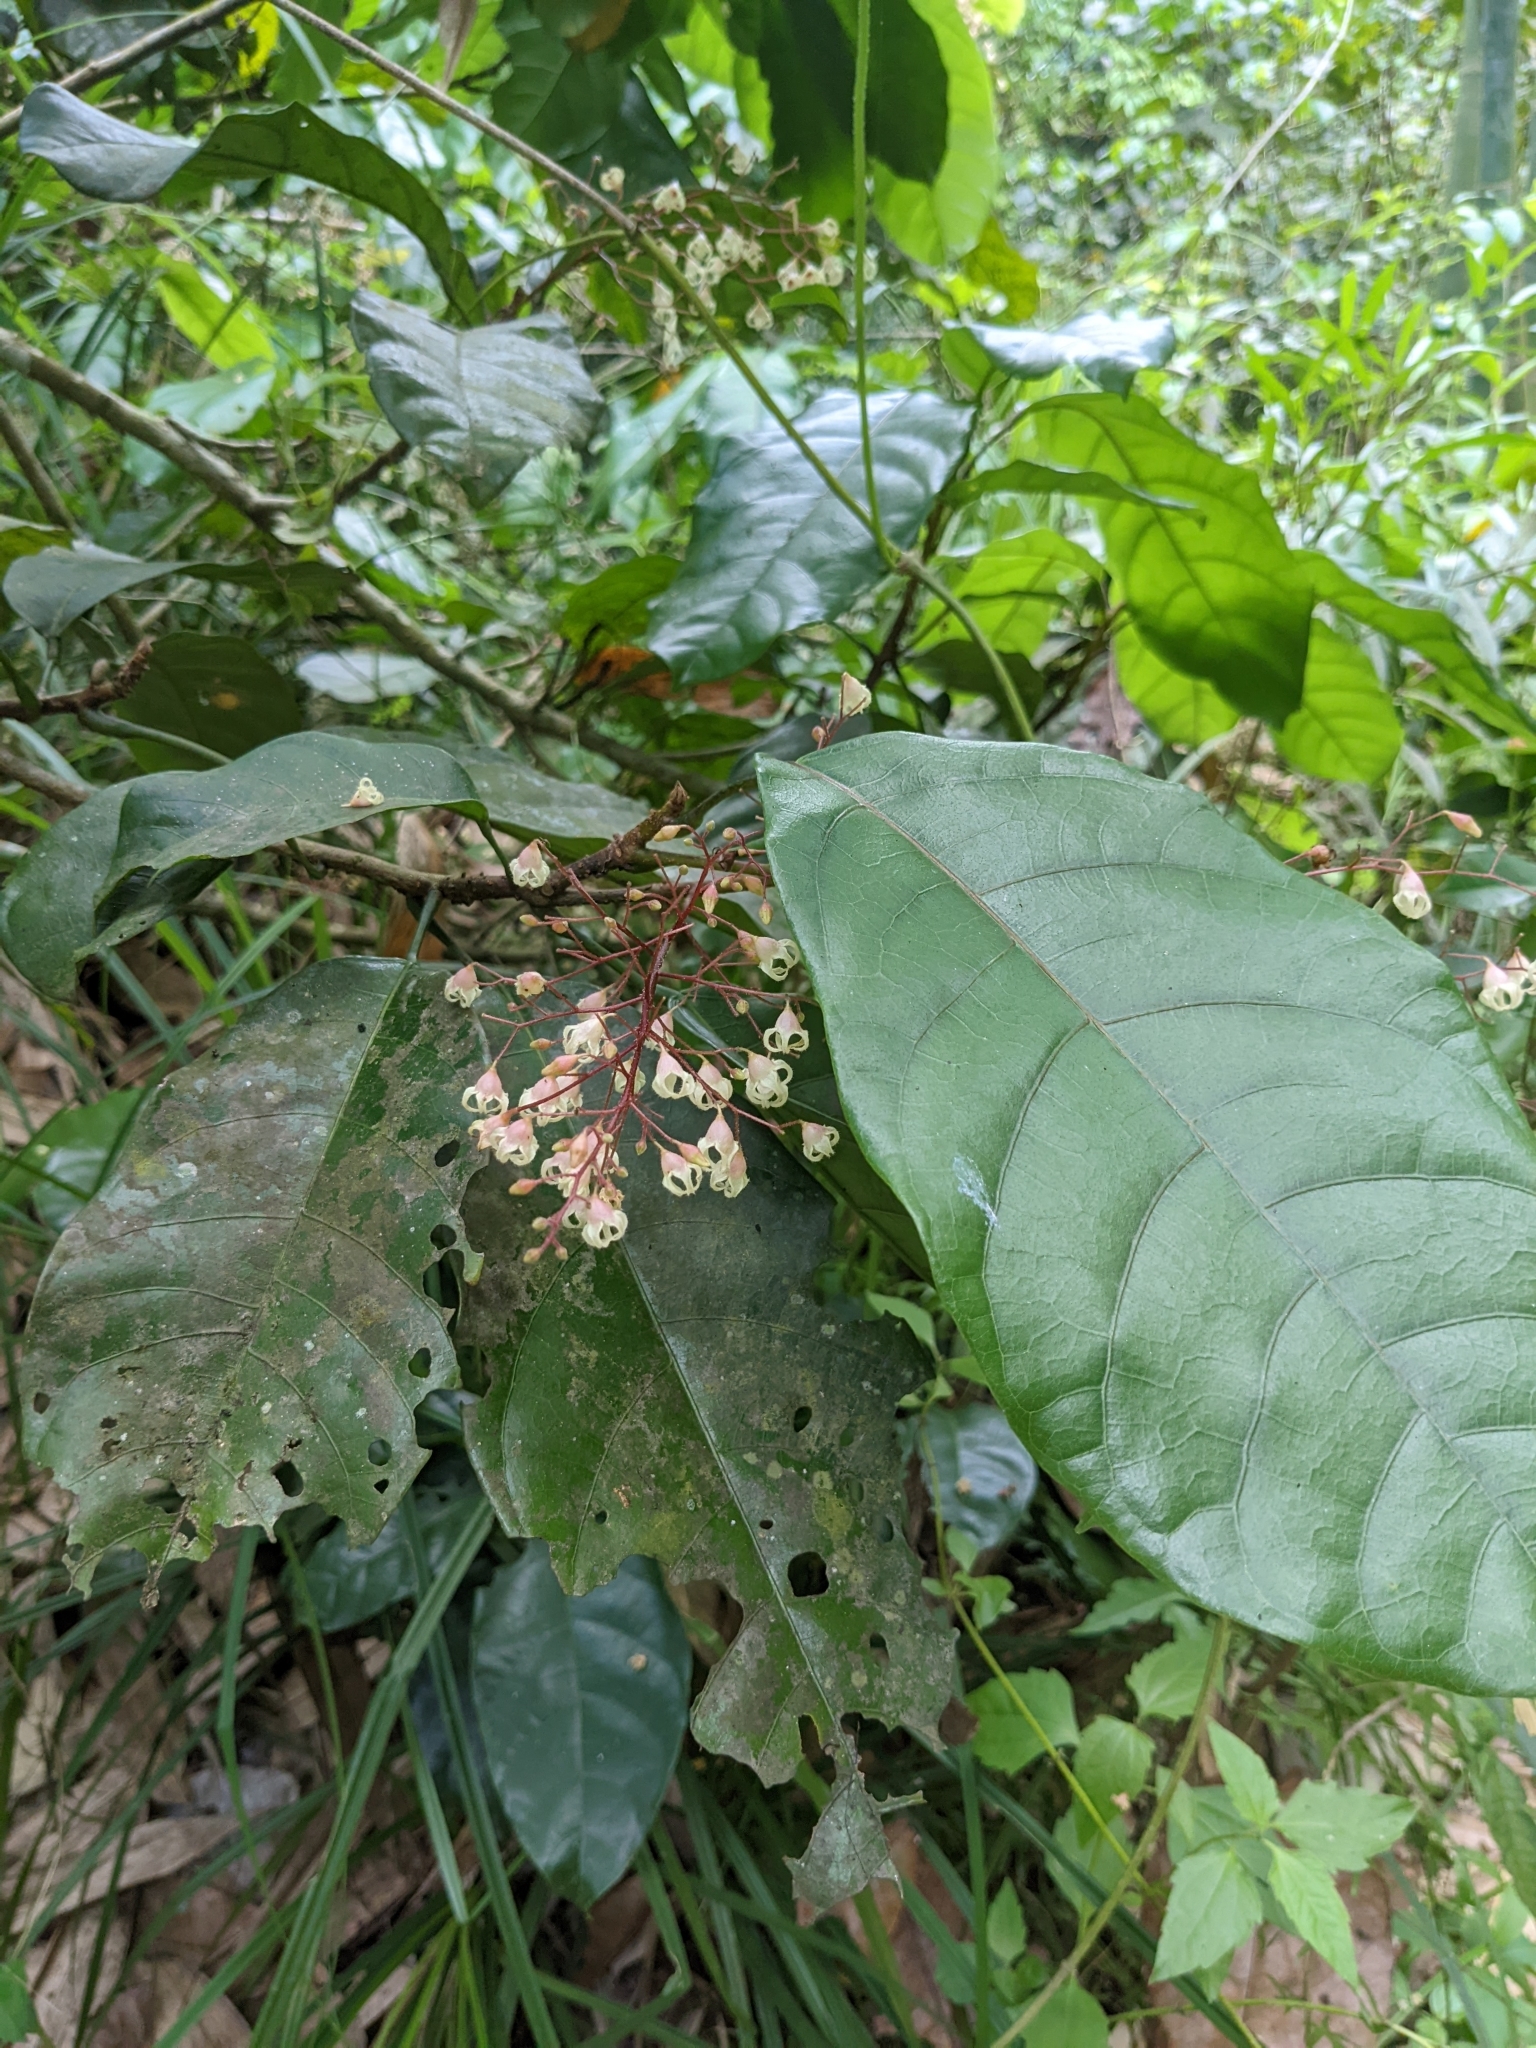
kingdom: Plantae
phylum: Tracheophyta
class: Magnoliopsida
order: Malvales
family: Malvaceae
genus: Sterculia
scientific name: Sterculia monosperma
